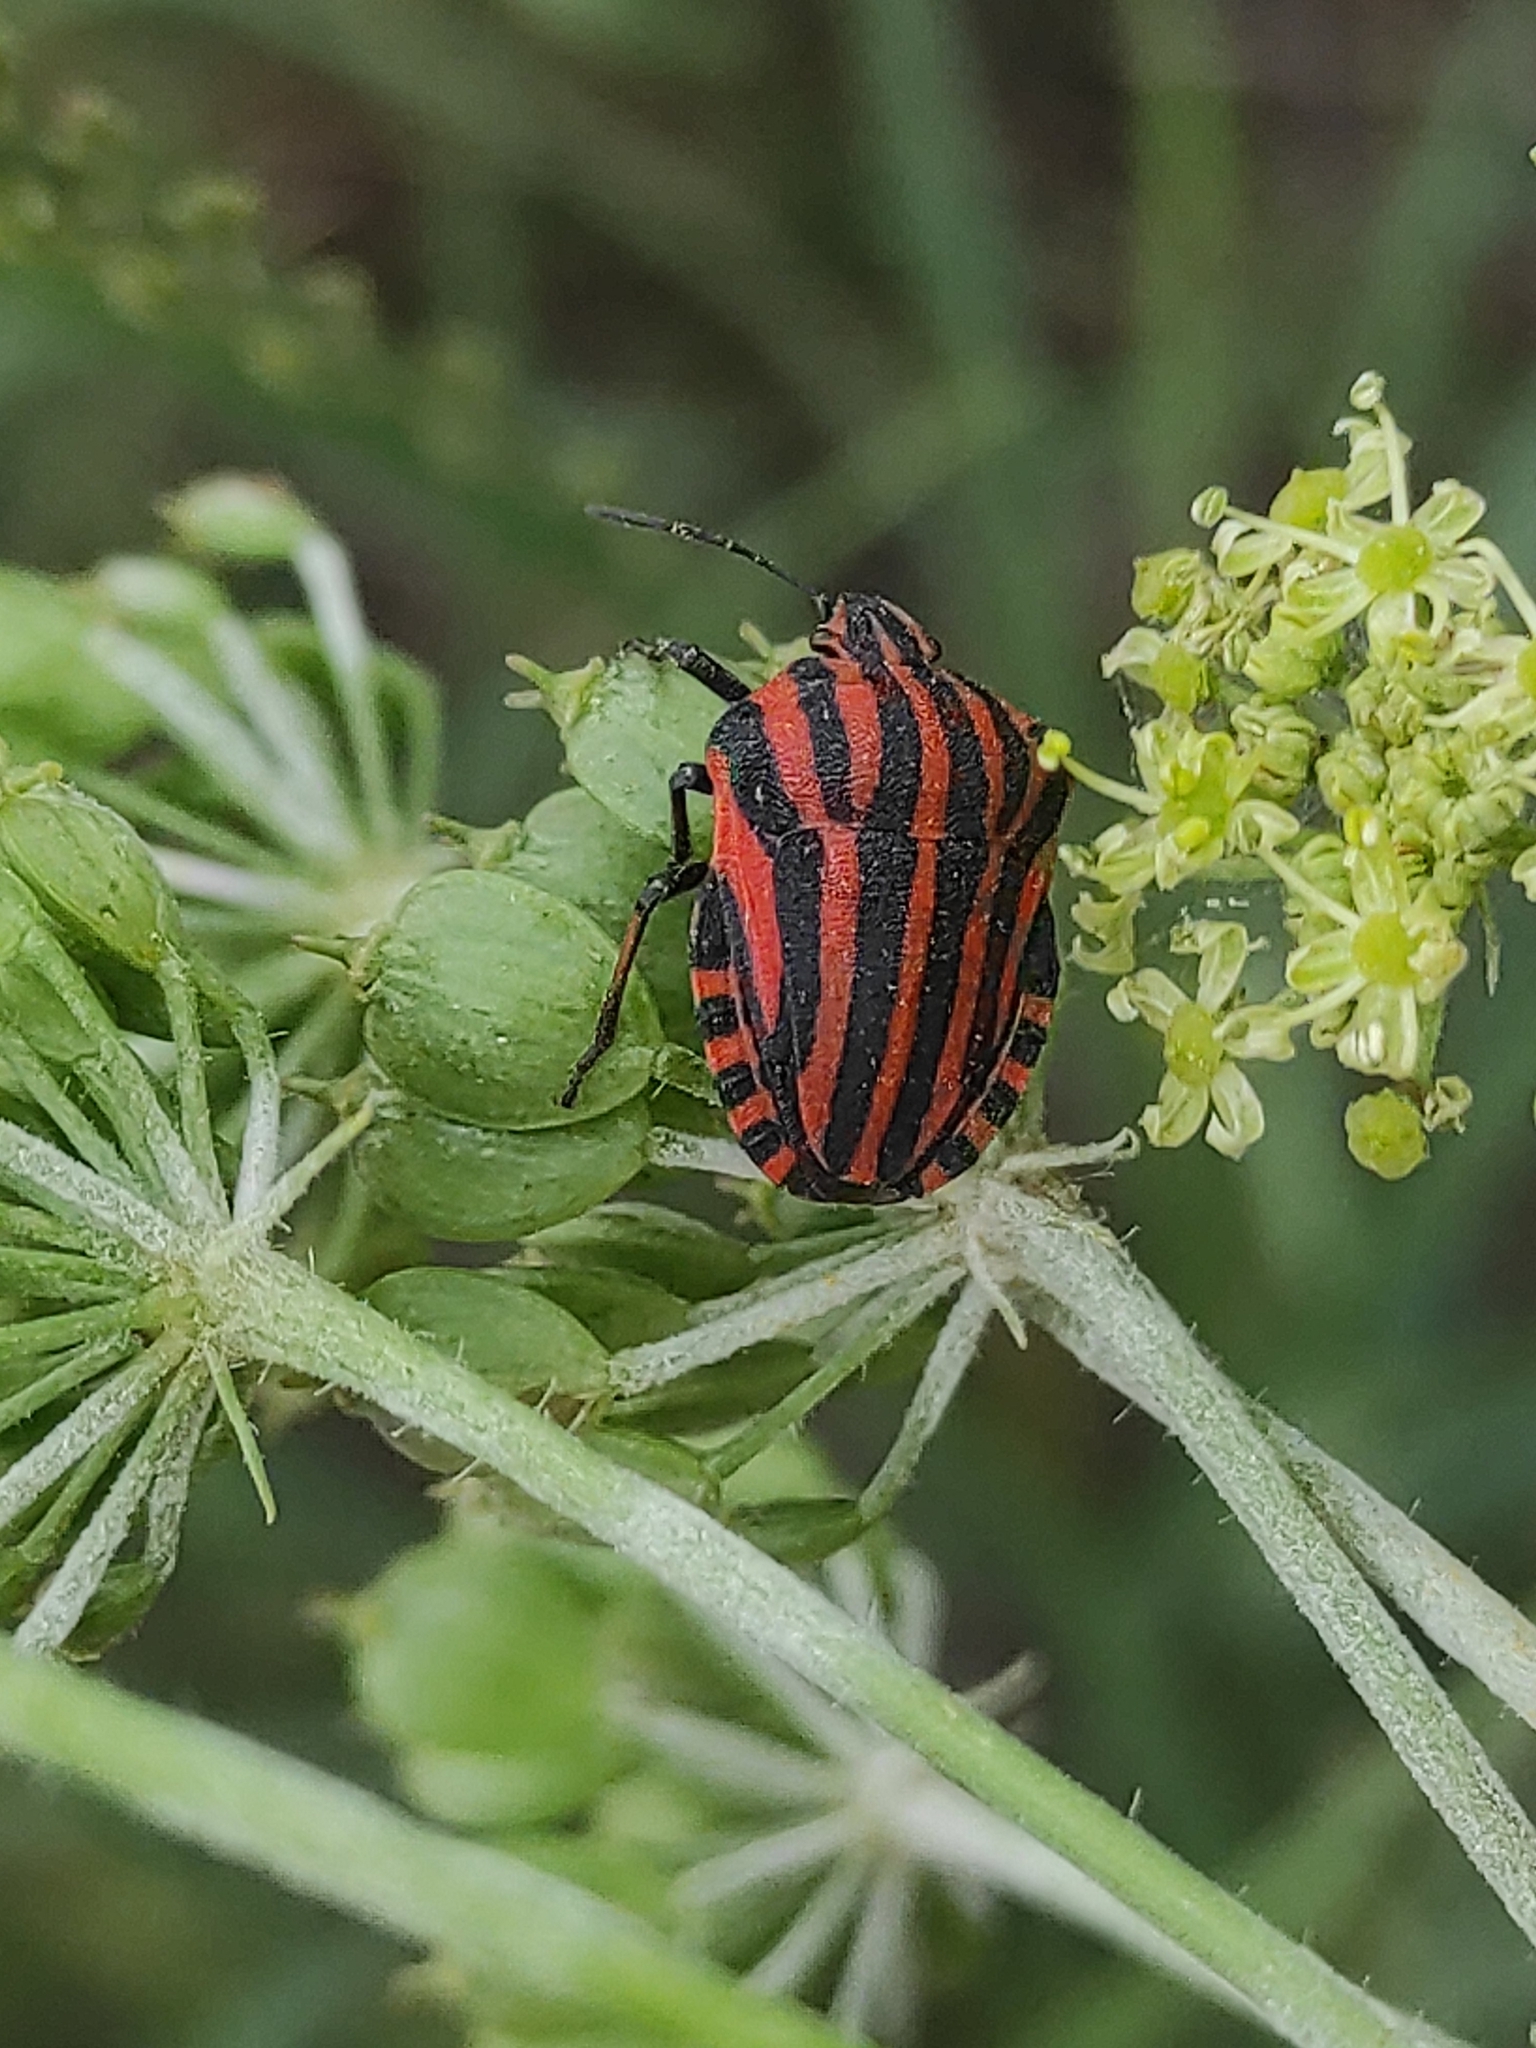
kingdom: Animalia
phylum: Arthropoda
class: Insecta
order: Hemiptera
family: Pentatomidae
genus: Graphosoma
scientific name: Graphosoma italicum
